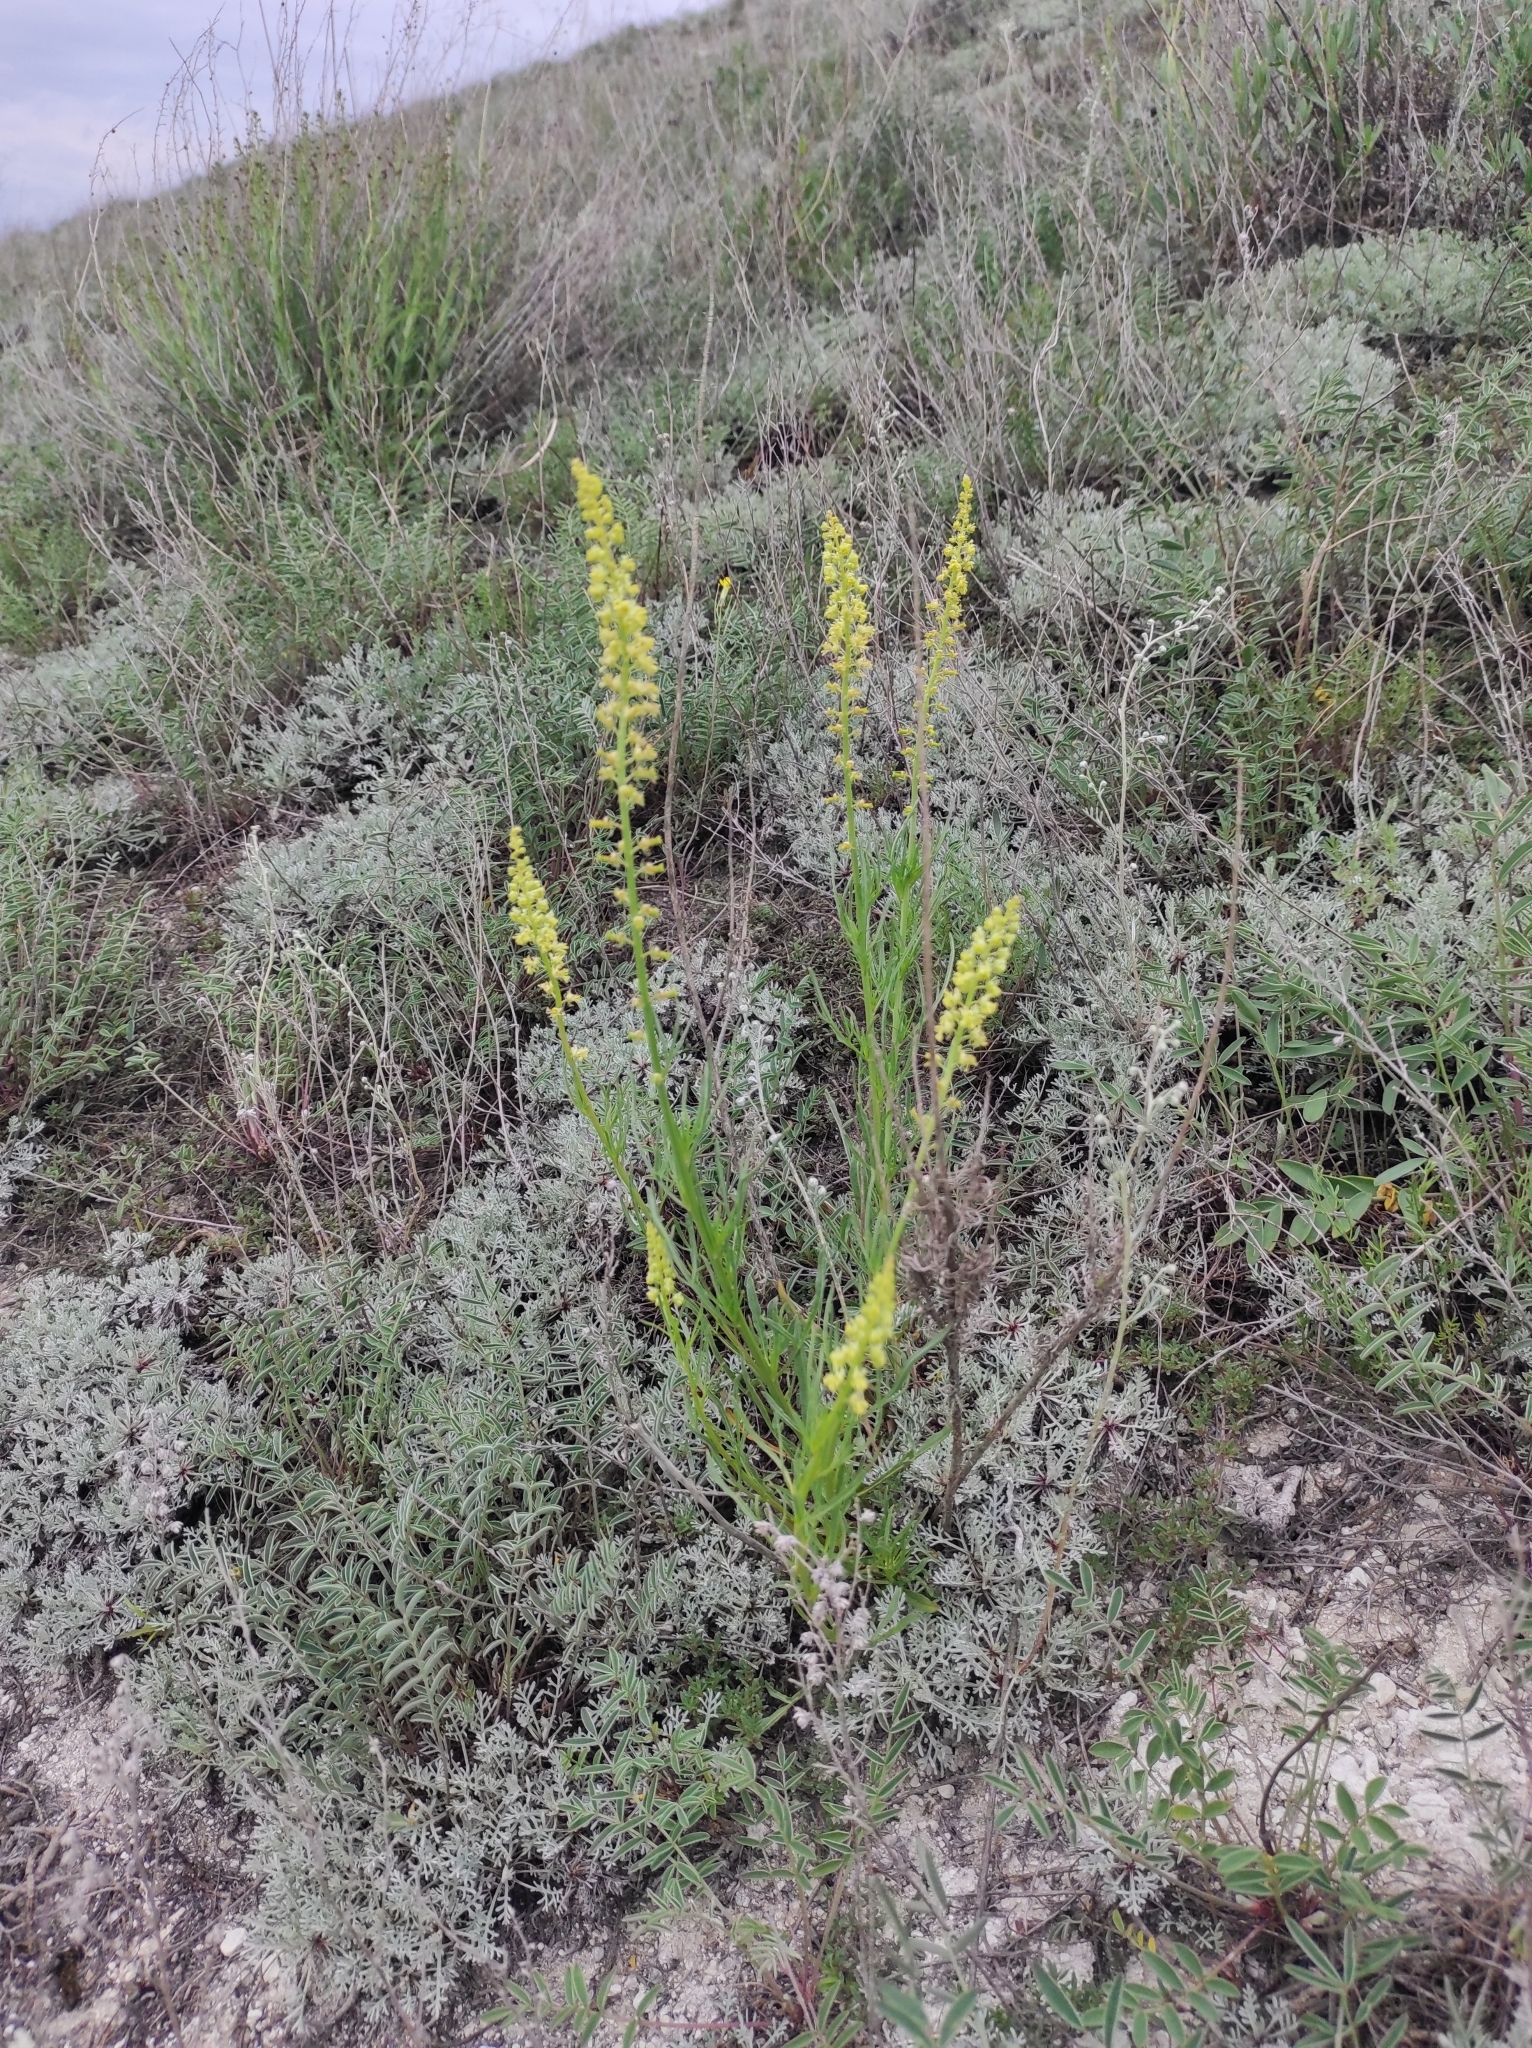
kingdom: Plantae
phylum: Tracheophyta
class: Magnoliopsida
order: Brassicales
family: Resedaceae
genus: Reseda
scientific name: Reseda lutea
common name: Wild mignonette
